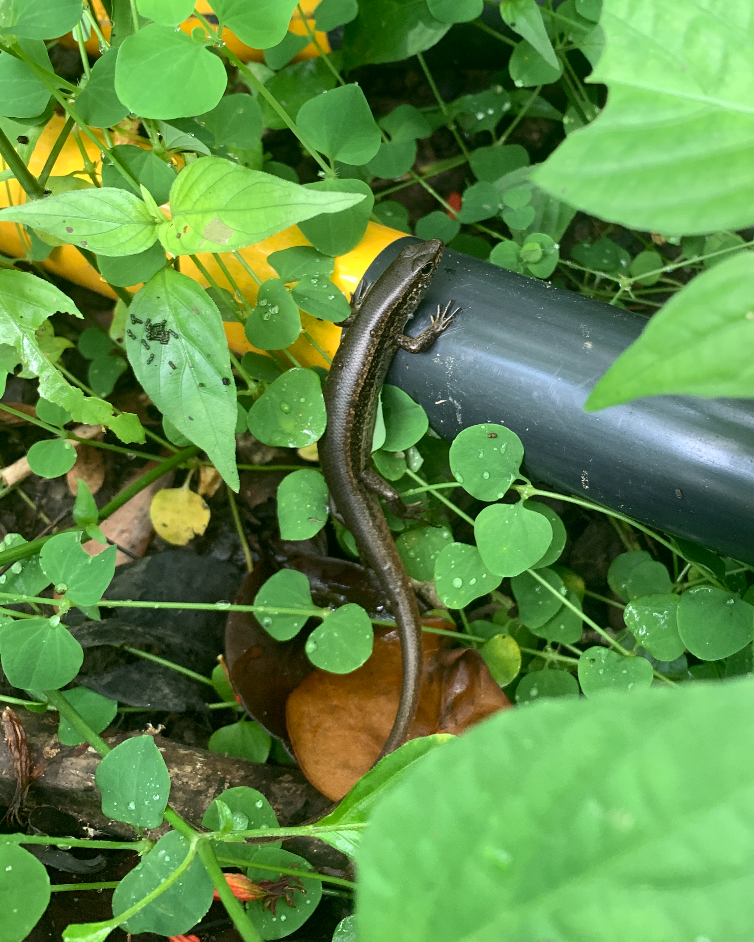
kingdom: Animalia
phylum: Chordata
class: Squamata
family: Scincidae
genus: Sphenomorphus
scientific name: Sphenomorphus indicus
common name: Himalayan forest skink
